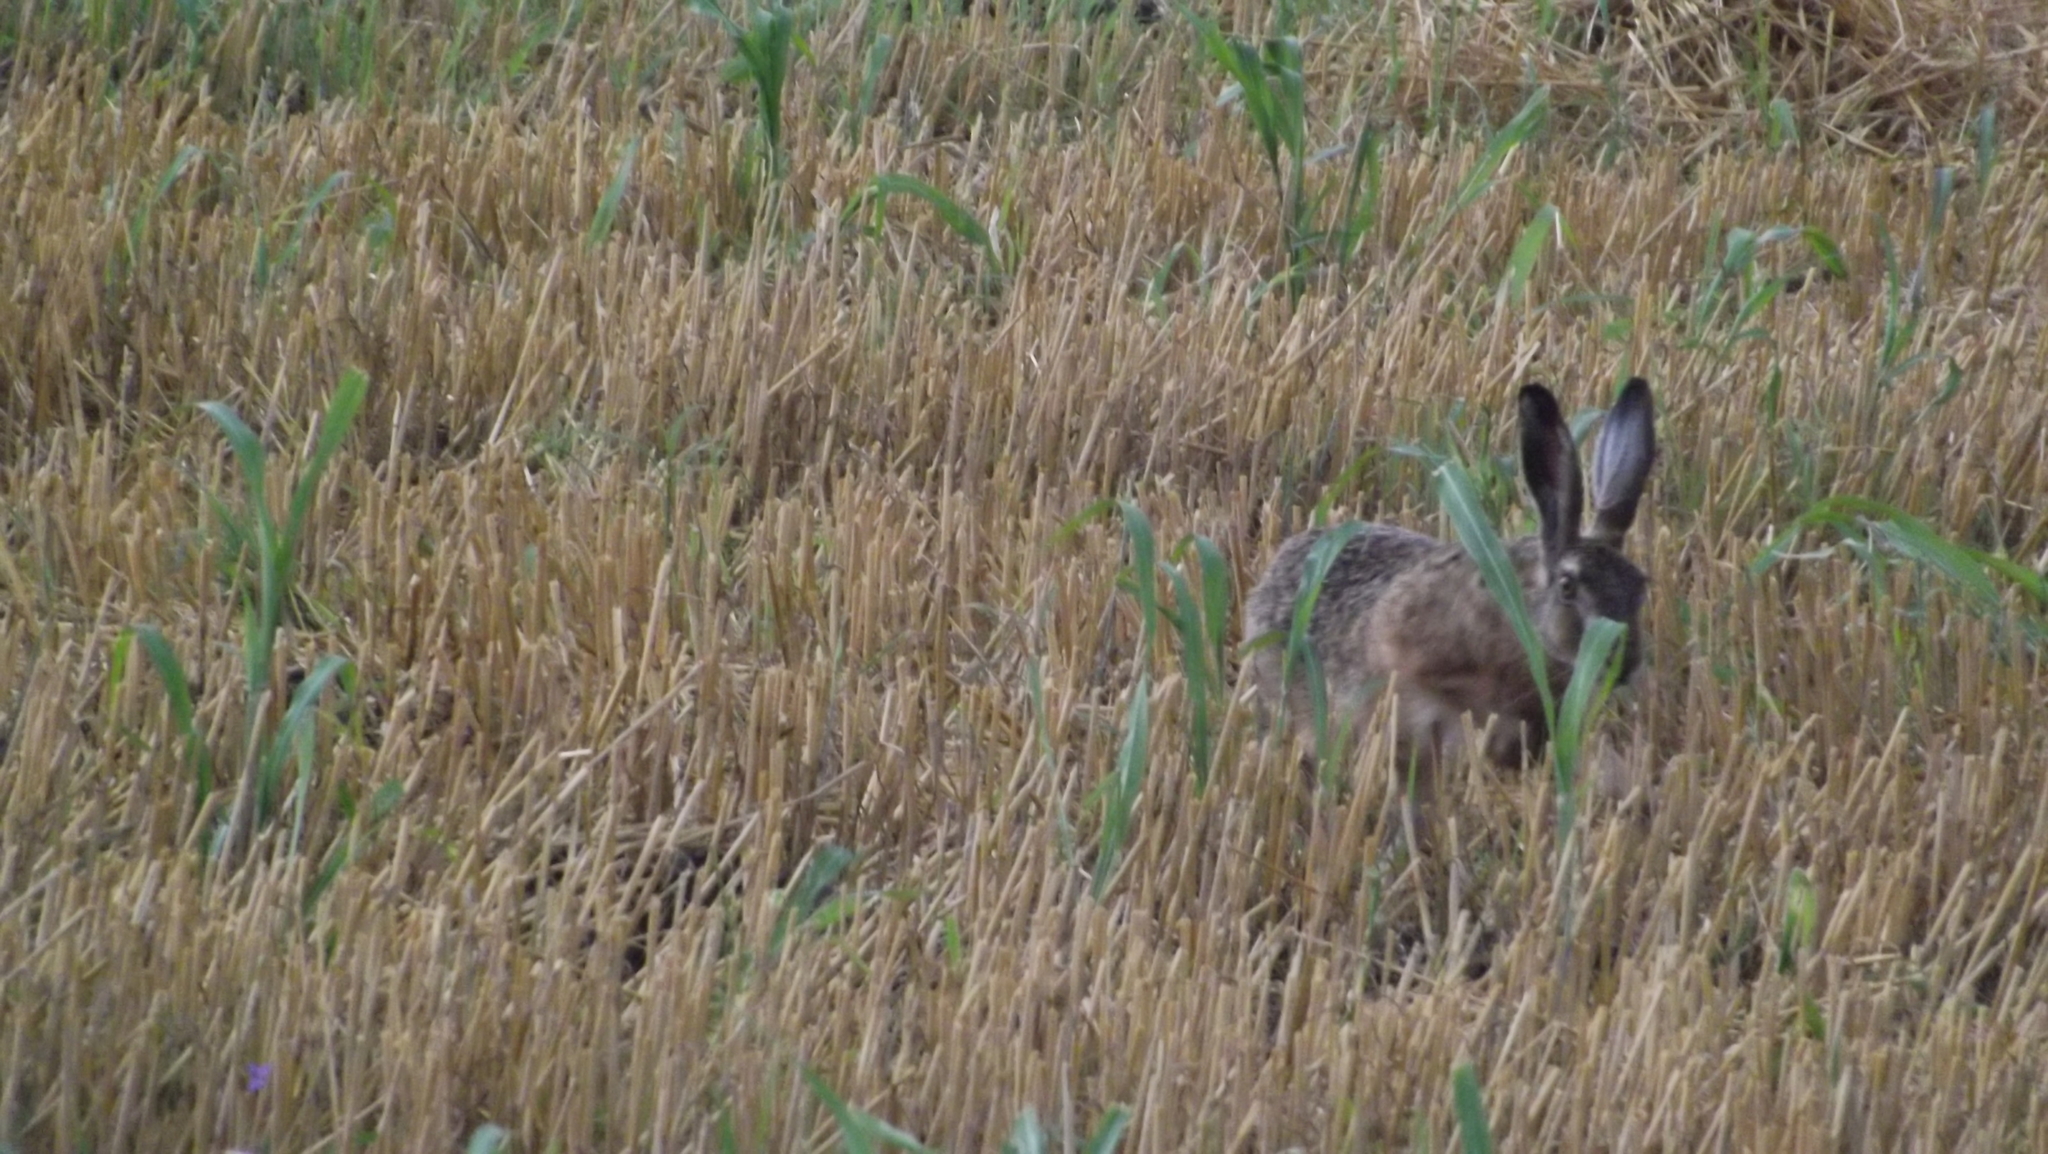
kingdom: Animalia
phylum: Chordata
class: Mammalia
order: Lagomorpha
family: Leporidae
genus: Lepus
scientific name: Lepus europaeus
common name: European hare
